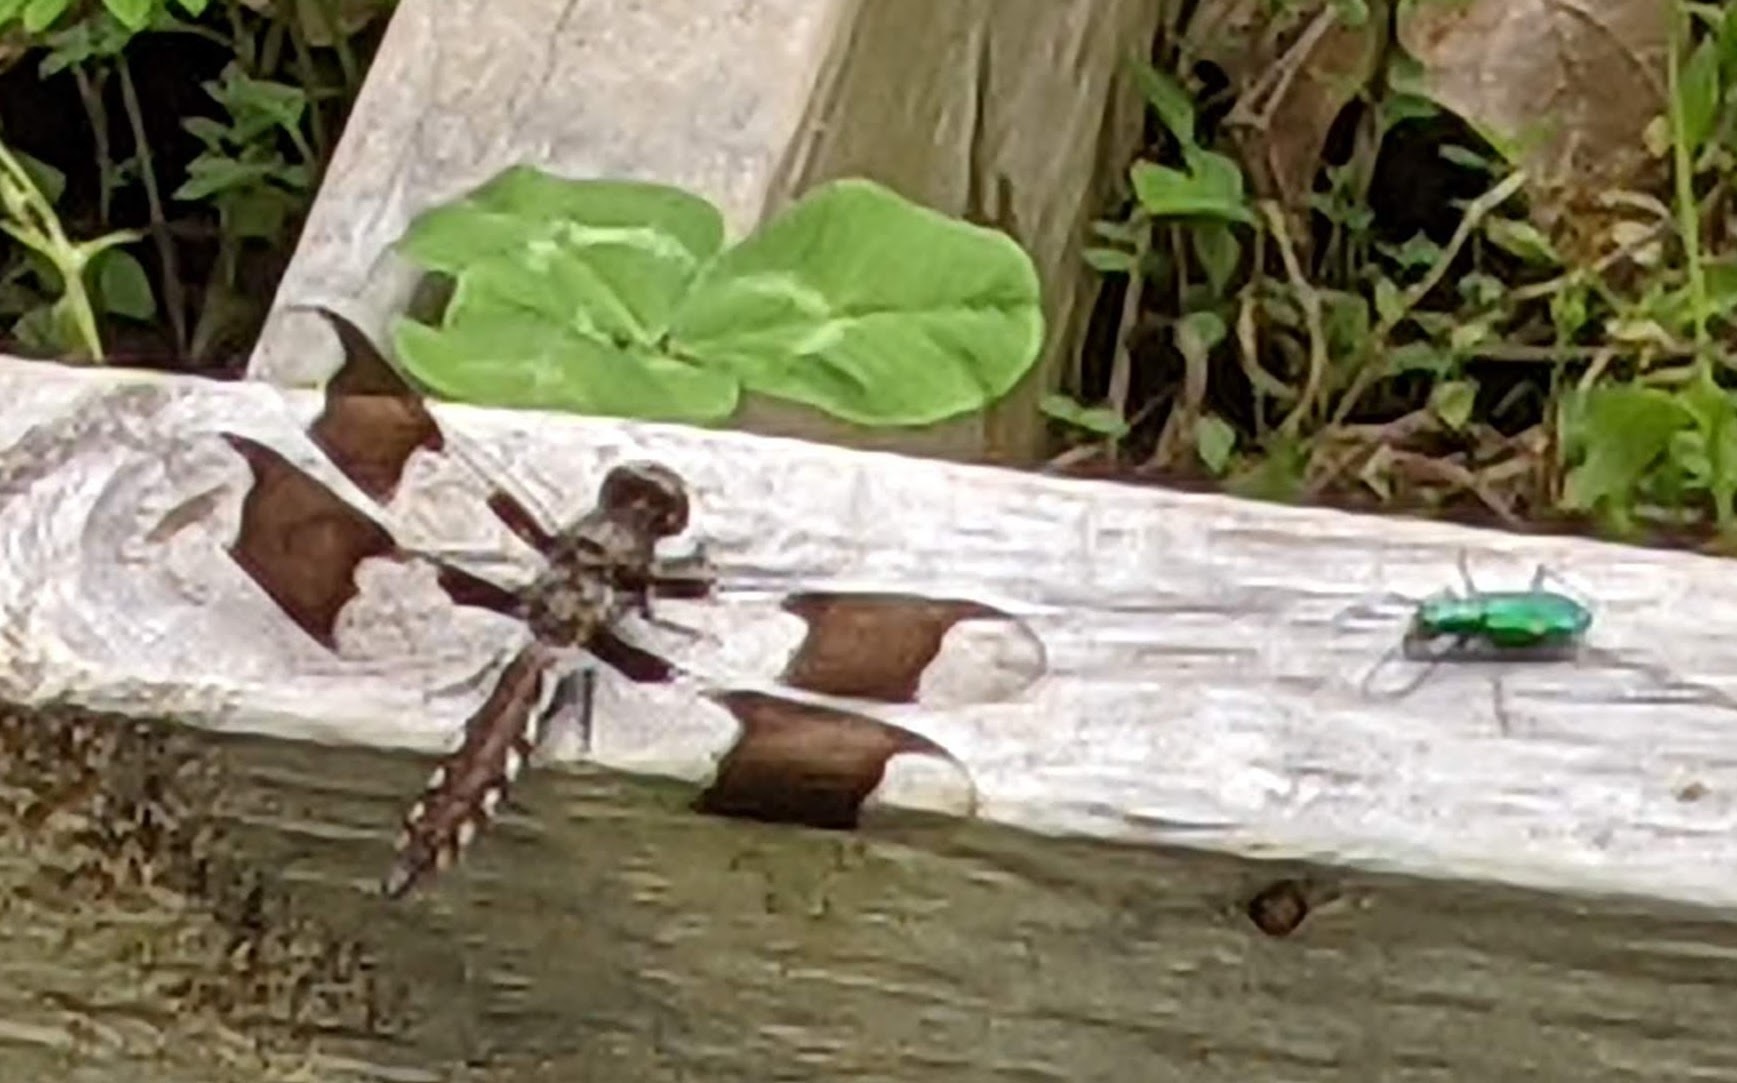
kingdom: Animalia
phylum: Arthropoda
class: Insecta
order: Coleoptera
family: Carabidae
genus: Cicindela
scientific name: Cicindela sexguttata
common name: Six-spotted tiger beetle
